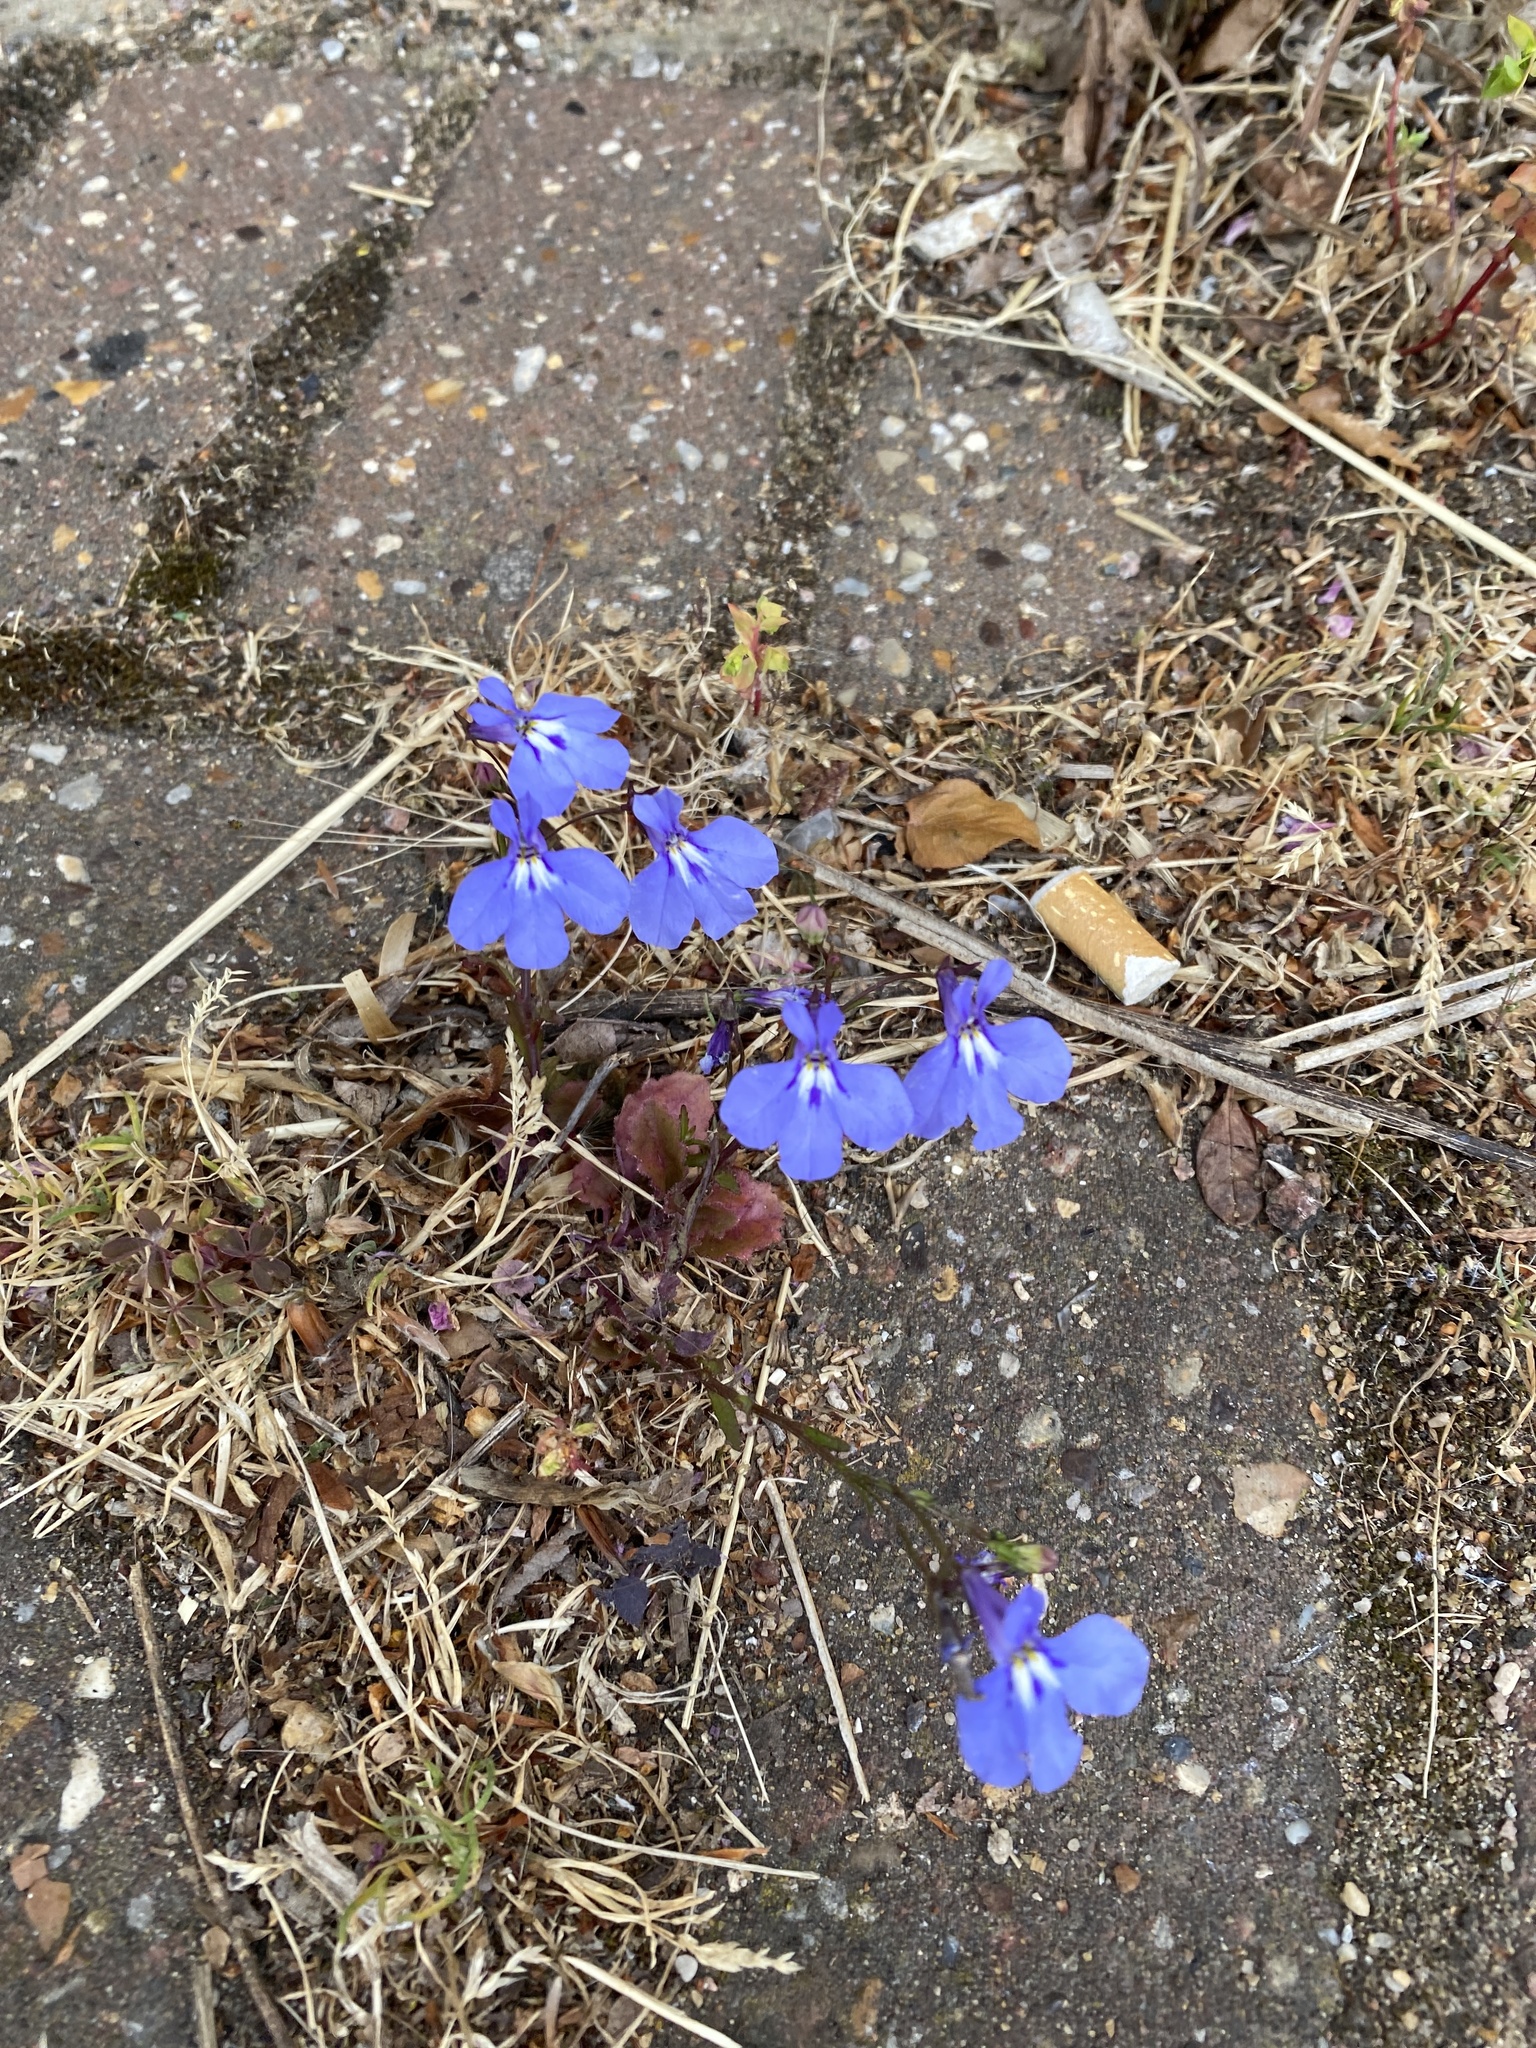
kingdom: Plantae
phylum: Tracheophyta
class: Magnoliopsida
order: Asterales
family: Campanulaceae
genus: Lobelia
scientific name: Lobelia erinus
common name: Edging lobelia
